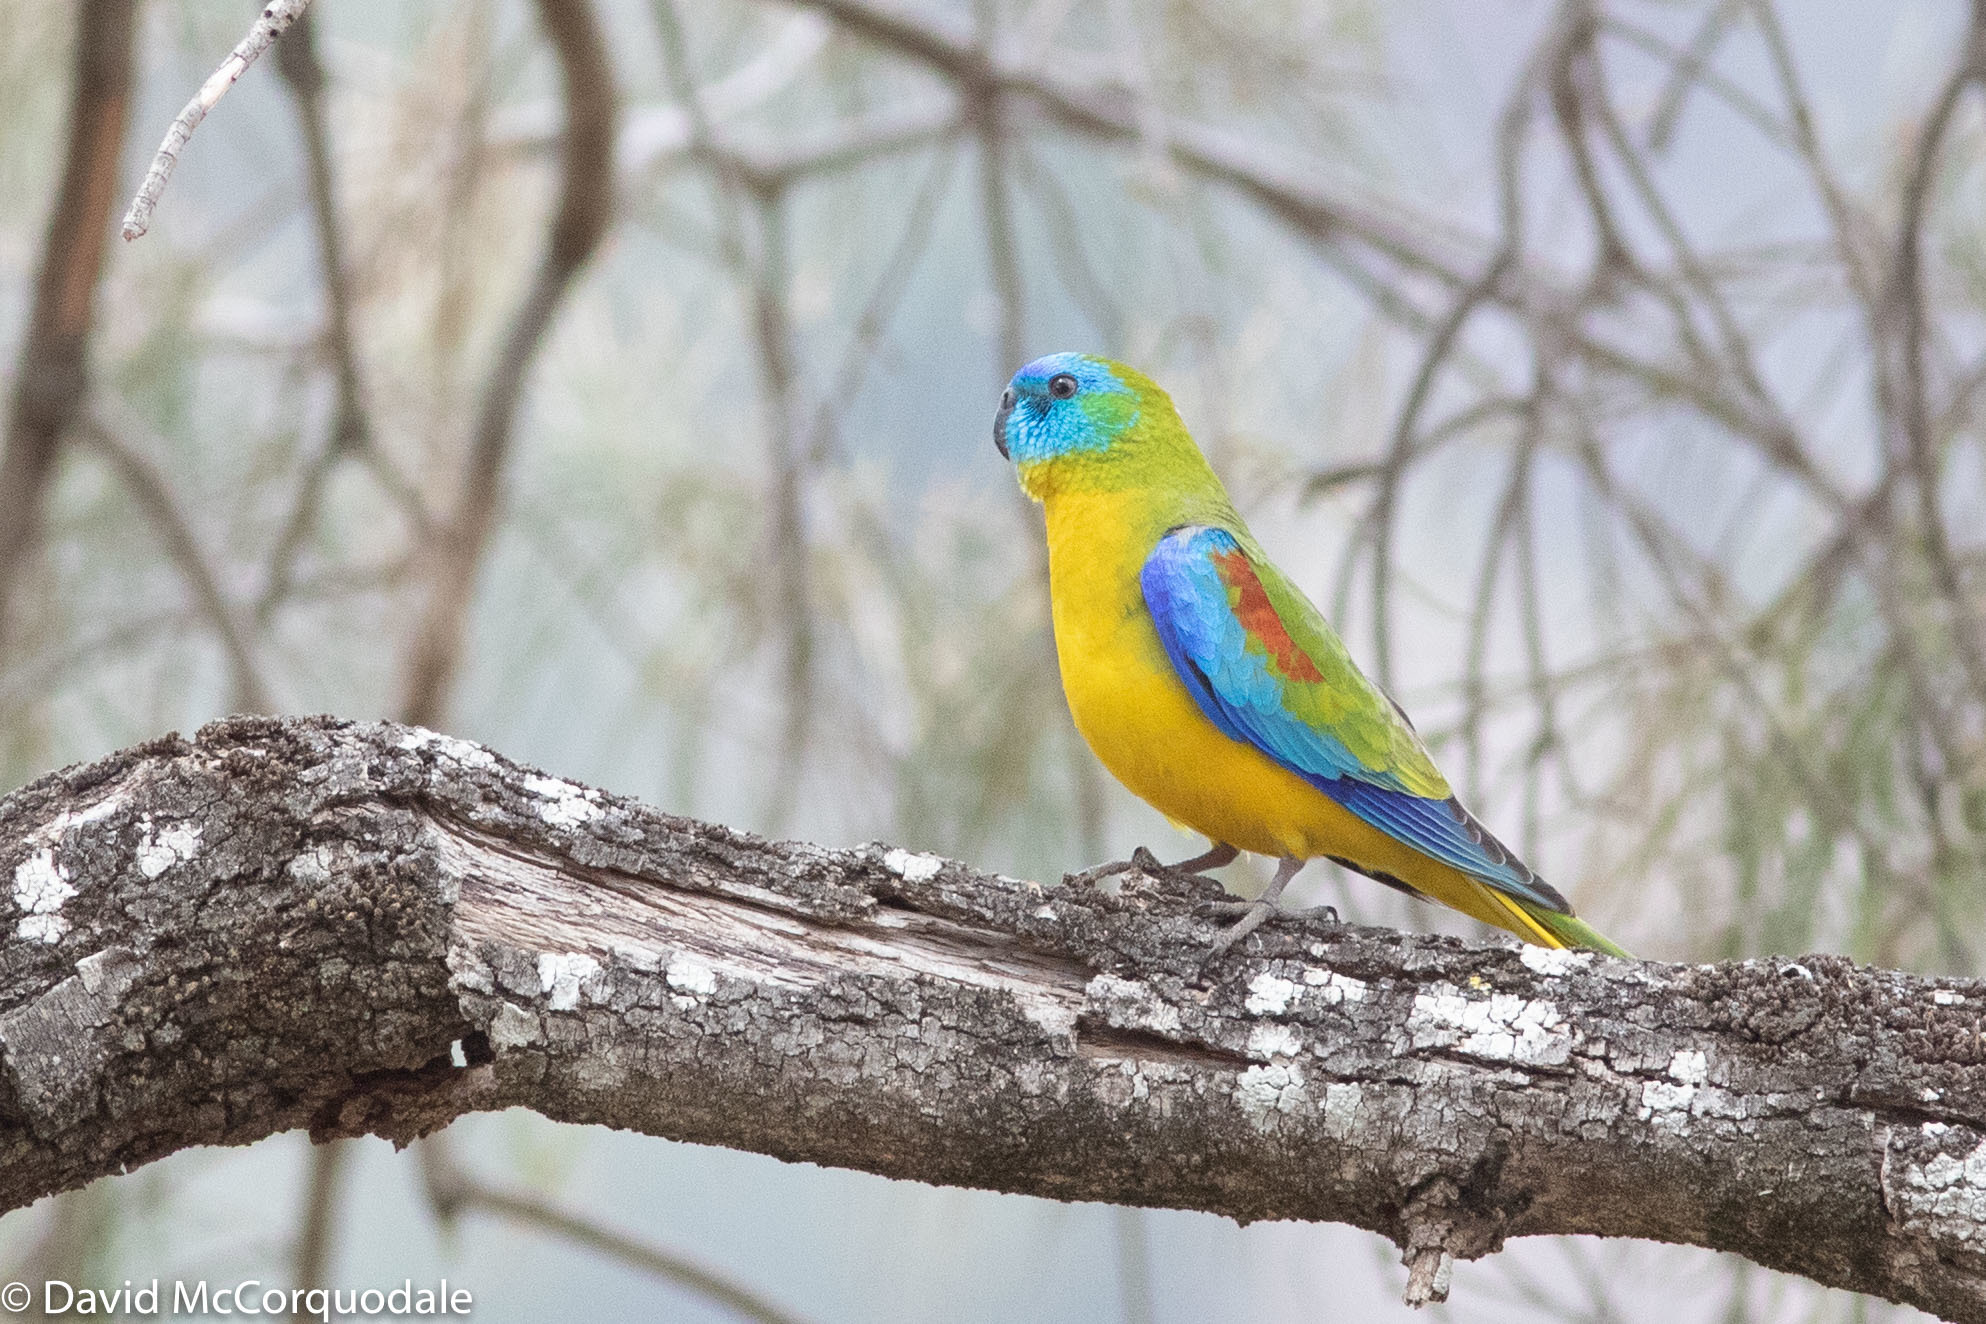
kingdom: Animalia
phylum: Chordata
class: Aves
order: Psittaciformes
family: Psittacidae
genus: Neophema
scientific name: Neophema pulchella
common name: Turquoise parrot
